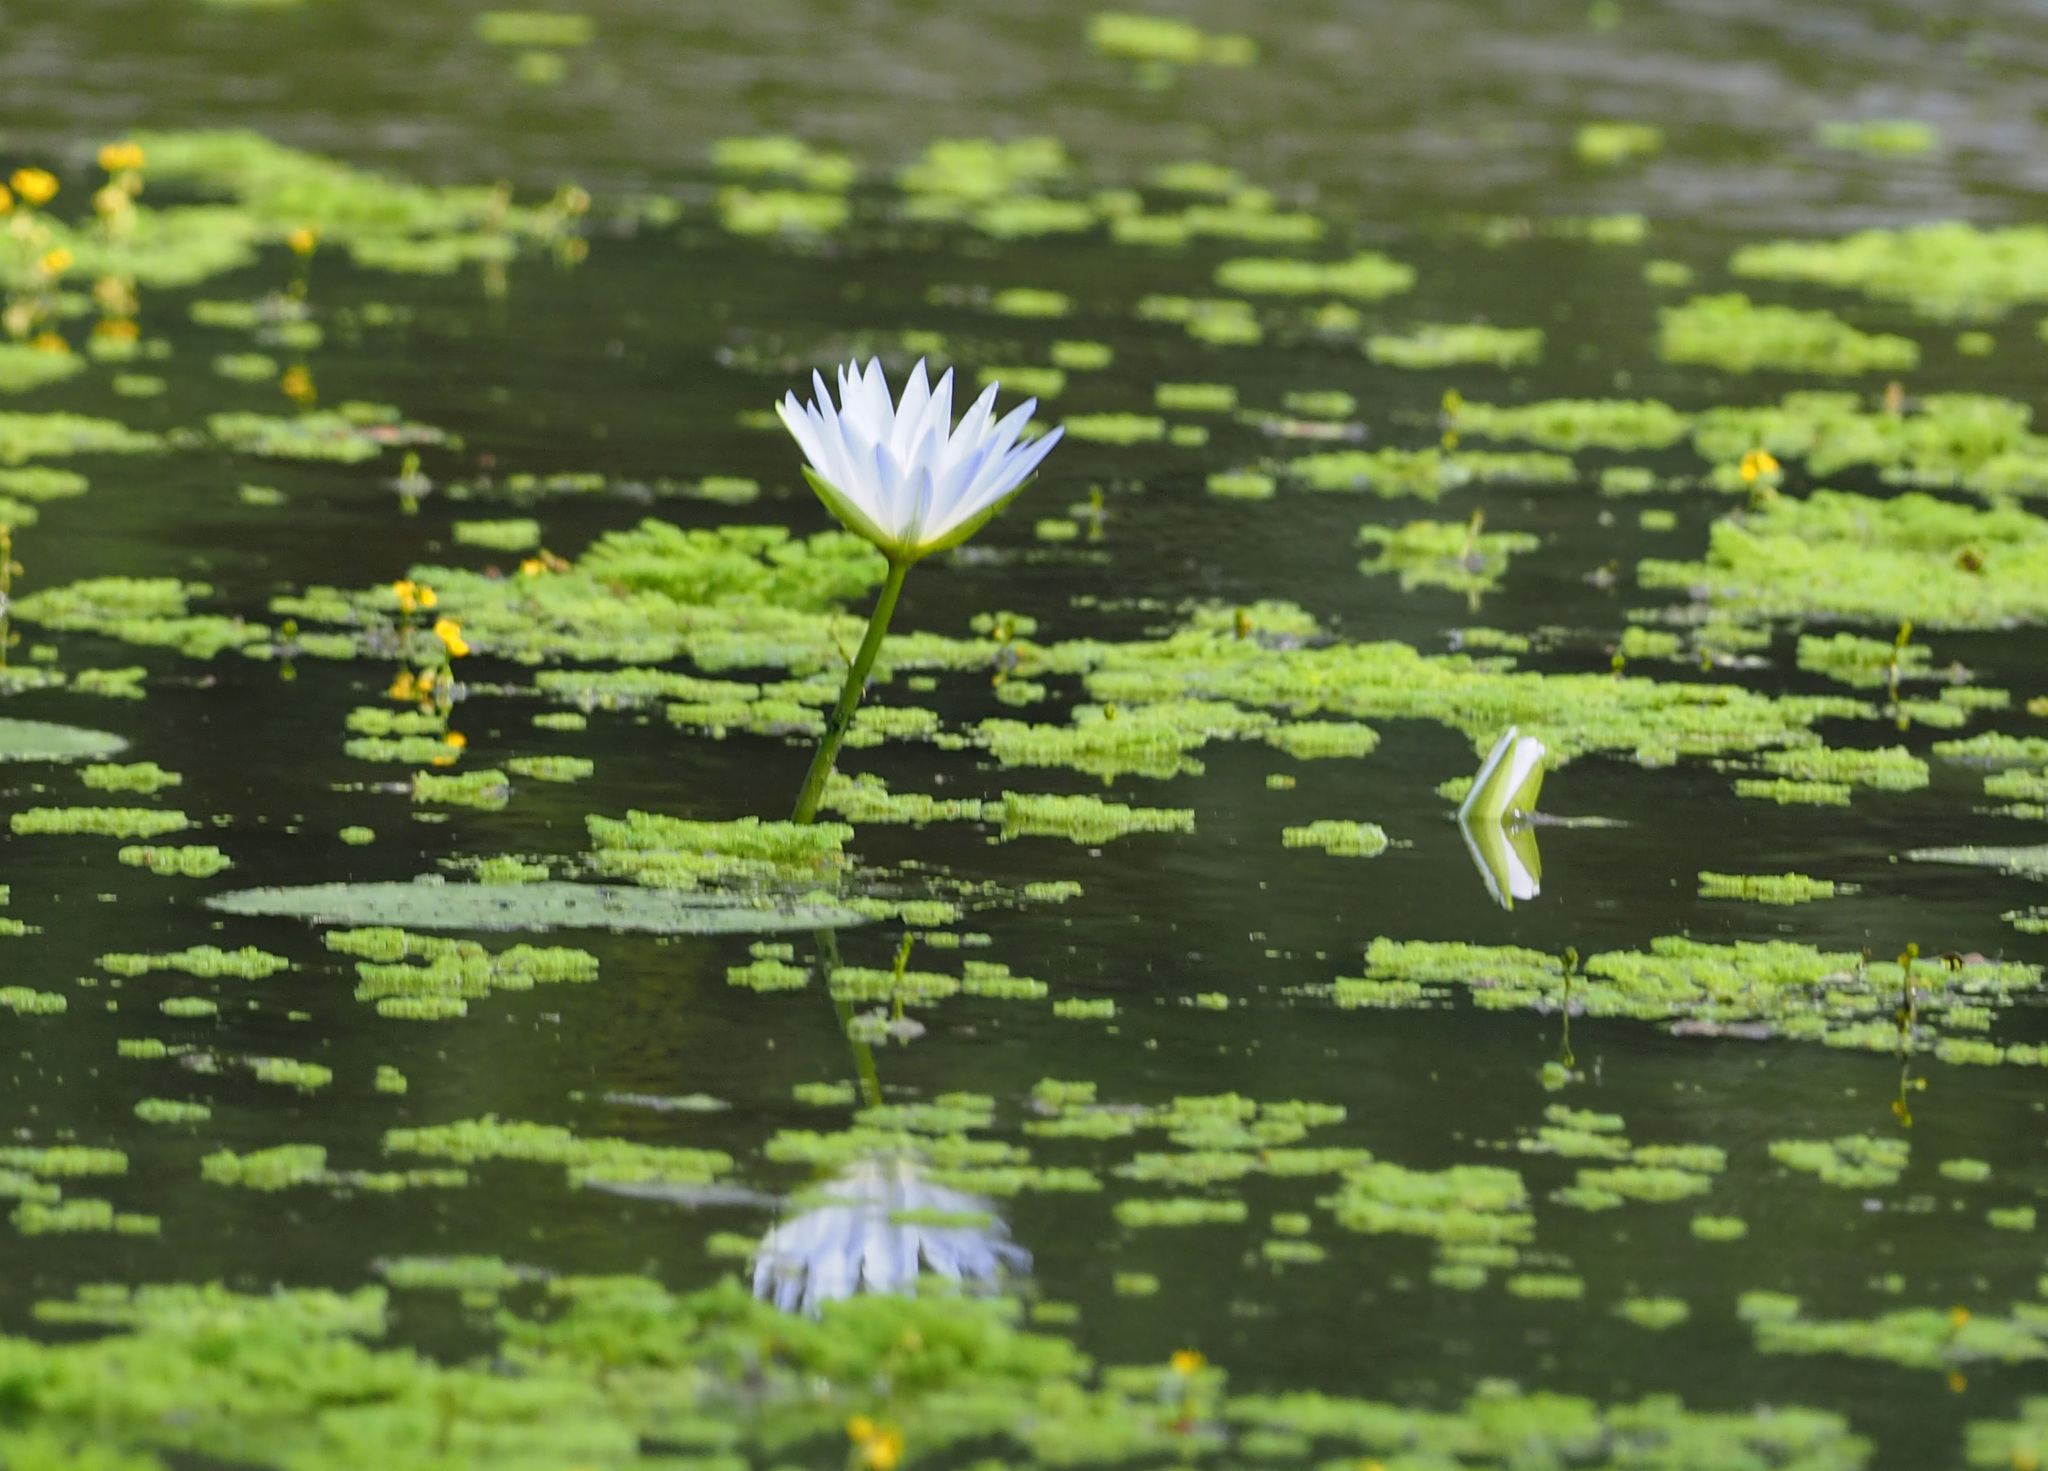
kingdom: Plantae
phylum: Tracheophyta
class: Magnoliopsida
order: Nymphaeales
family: Nymphaeaceae
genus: Nymphaea
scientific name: Nymphaea nouchali
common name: Blue lotus
